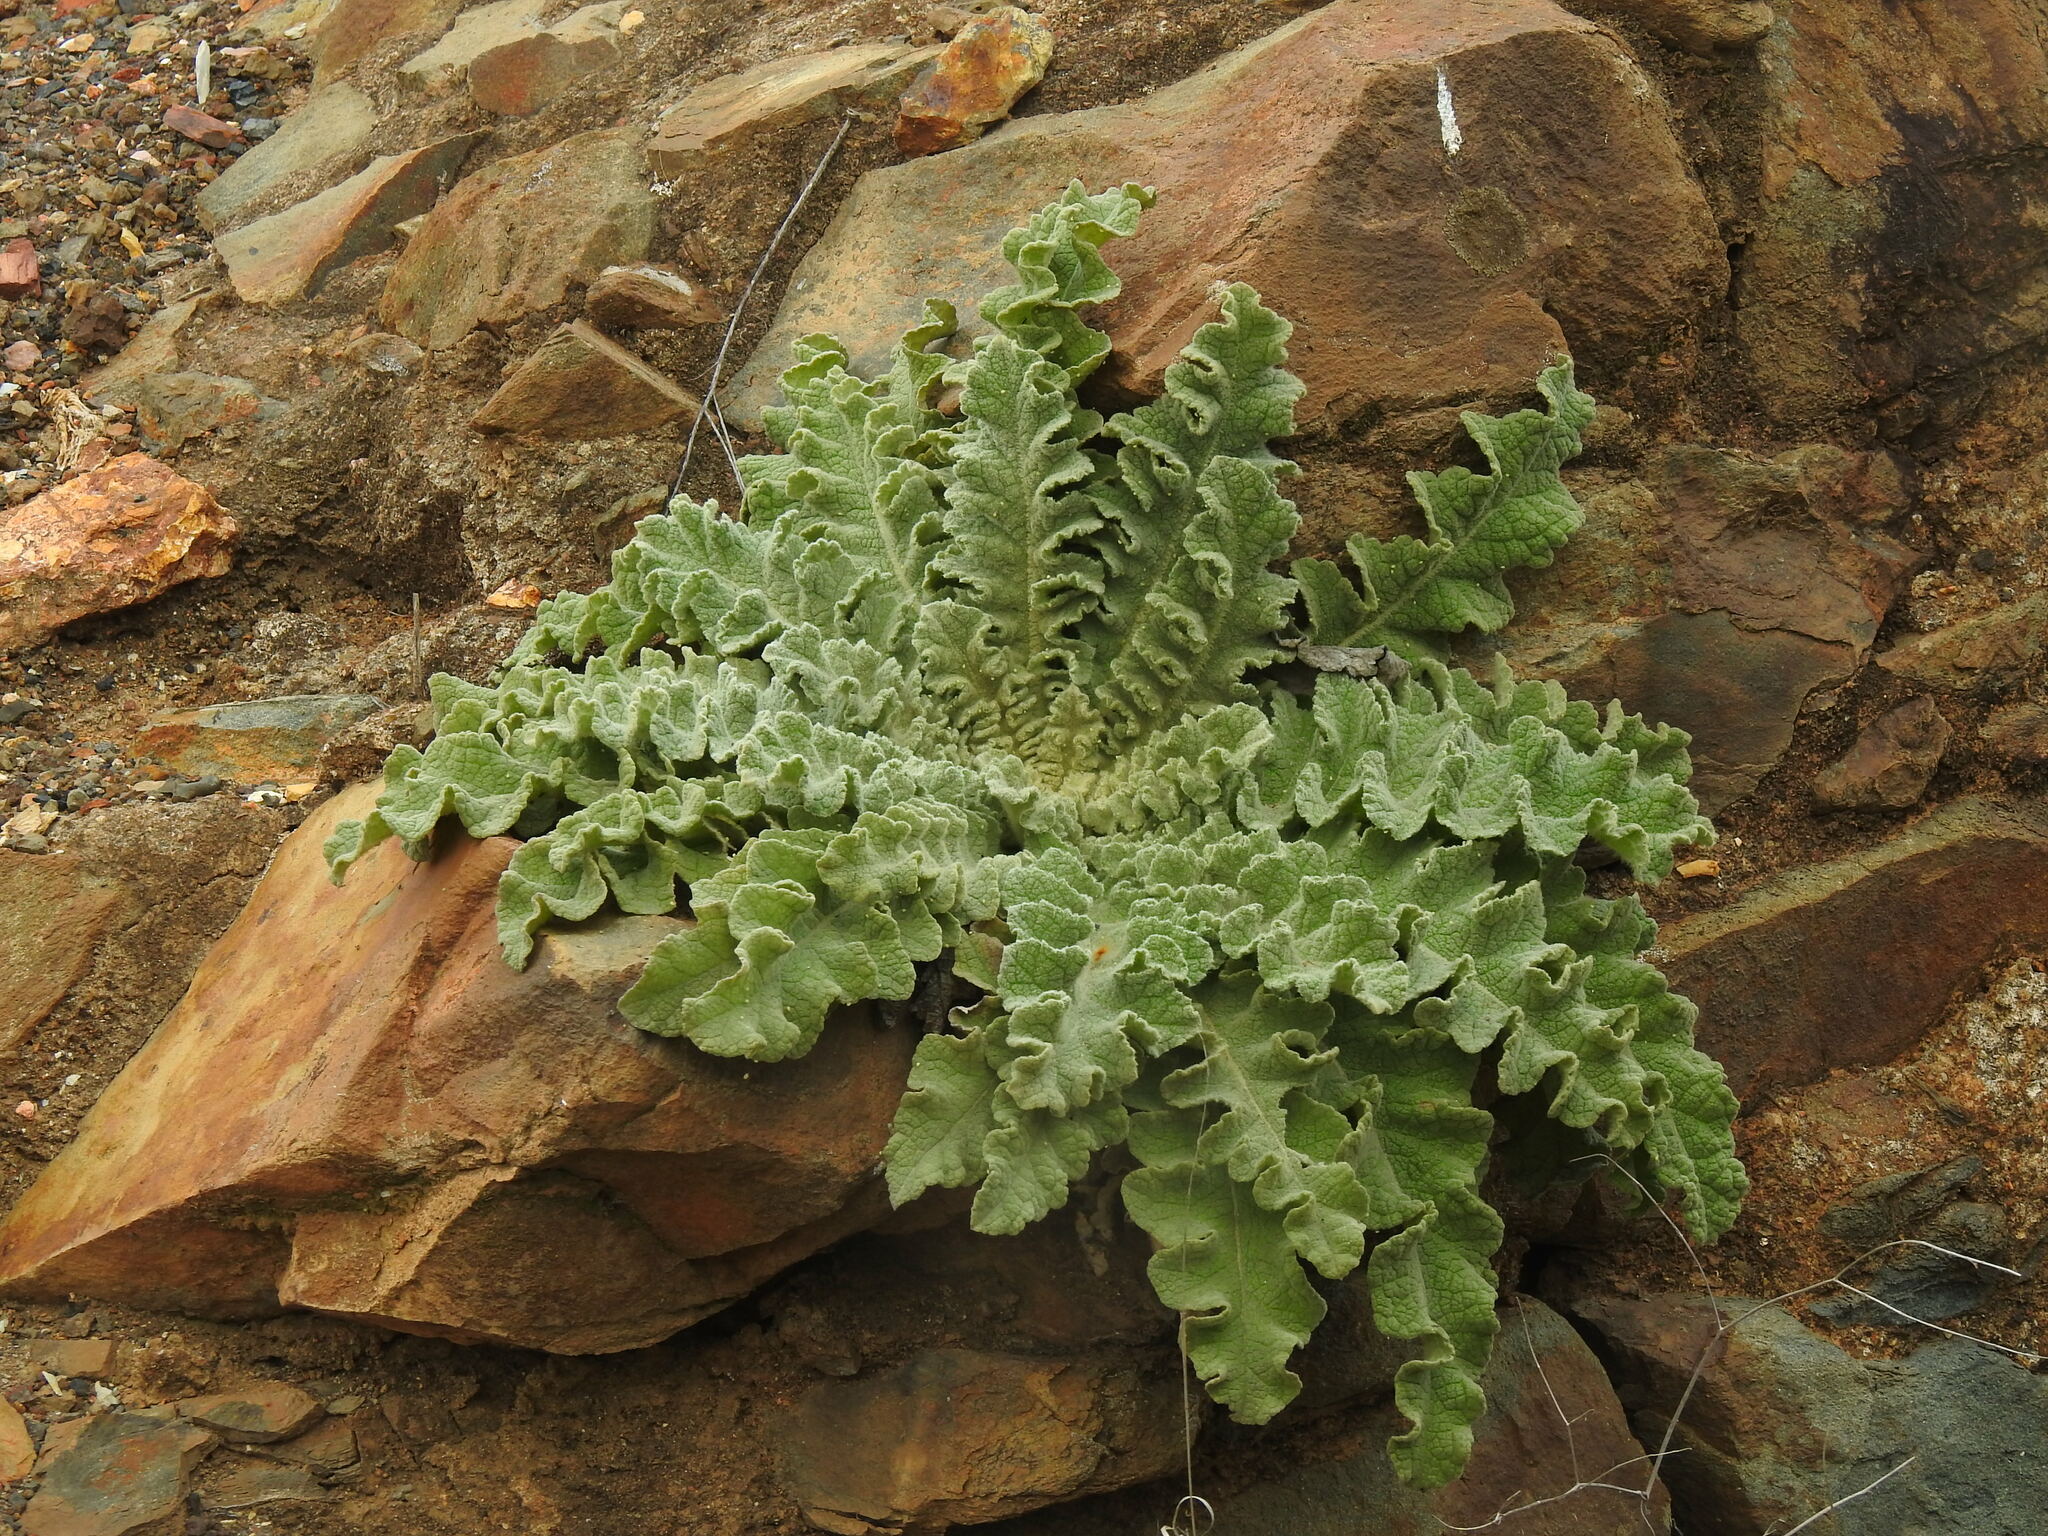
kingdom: Plantae
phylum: Tracheophyta
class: Magnoliopsida
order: Lamiales
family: Scrophulariaceae
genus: Verbascum
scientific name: Verbascum sinuatum
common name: Wavyleaf mullein
